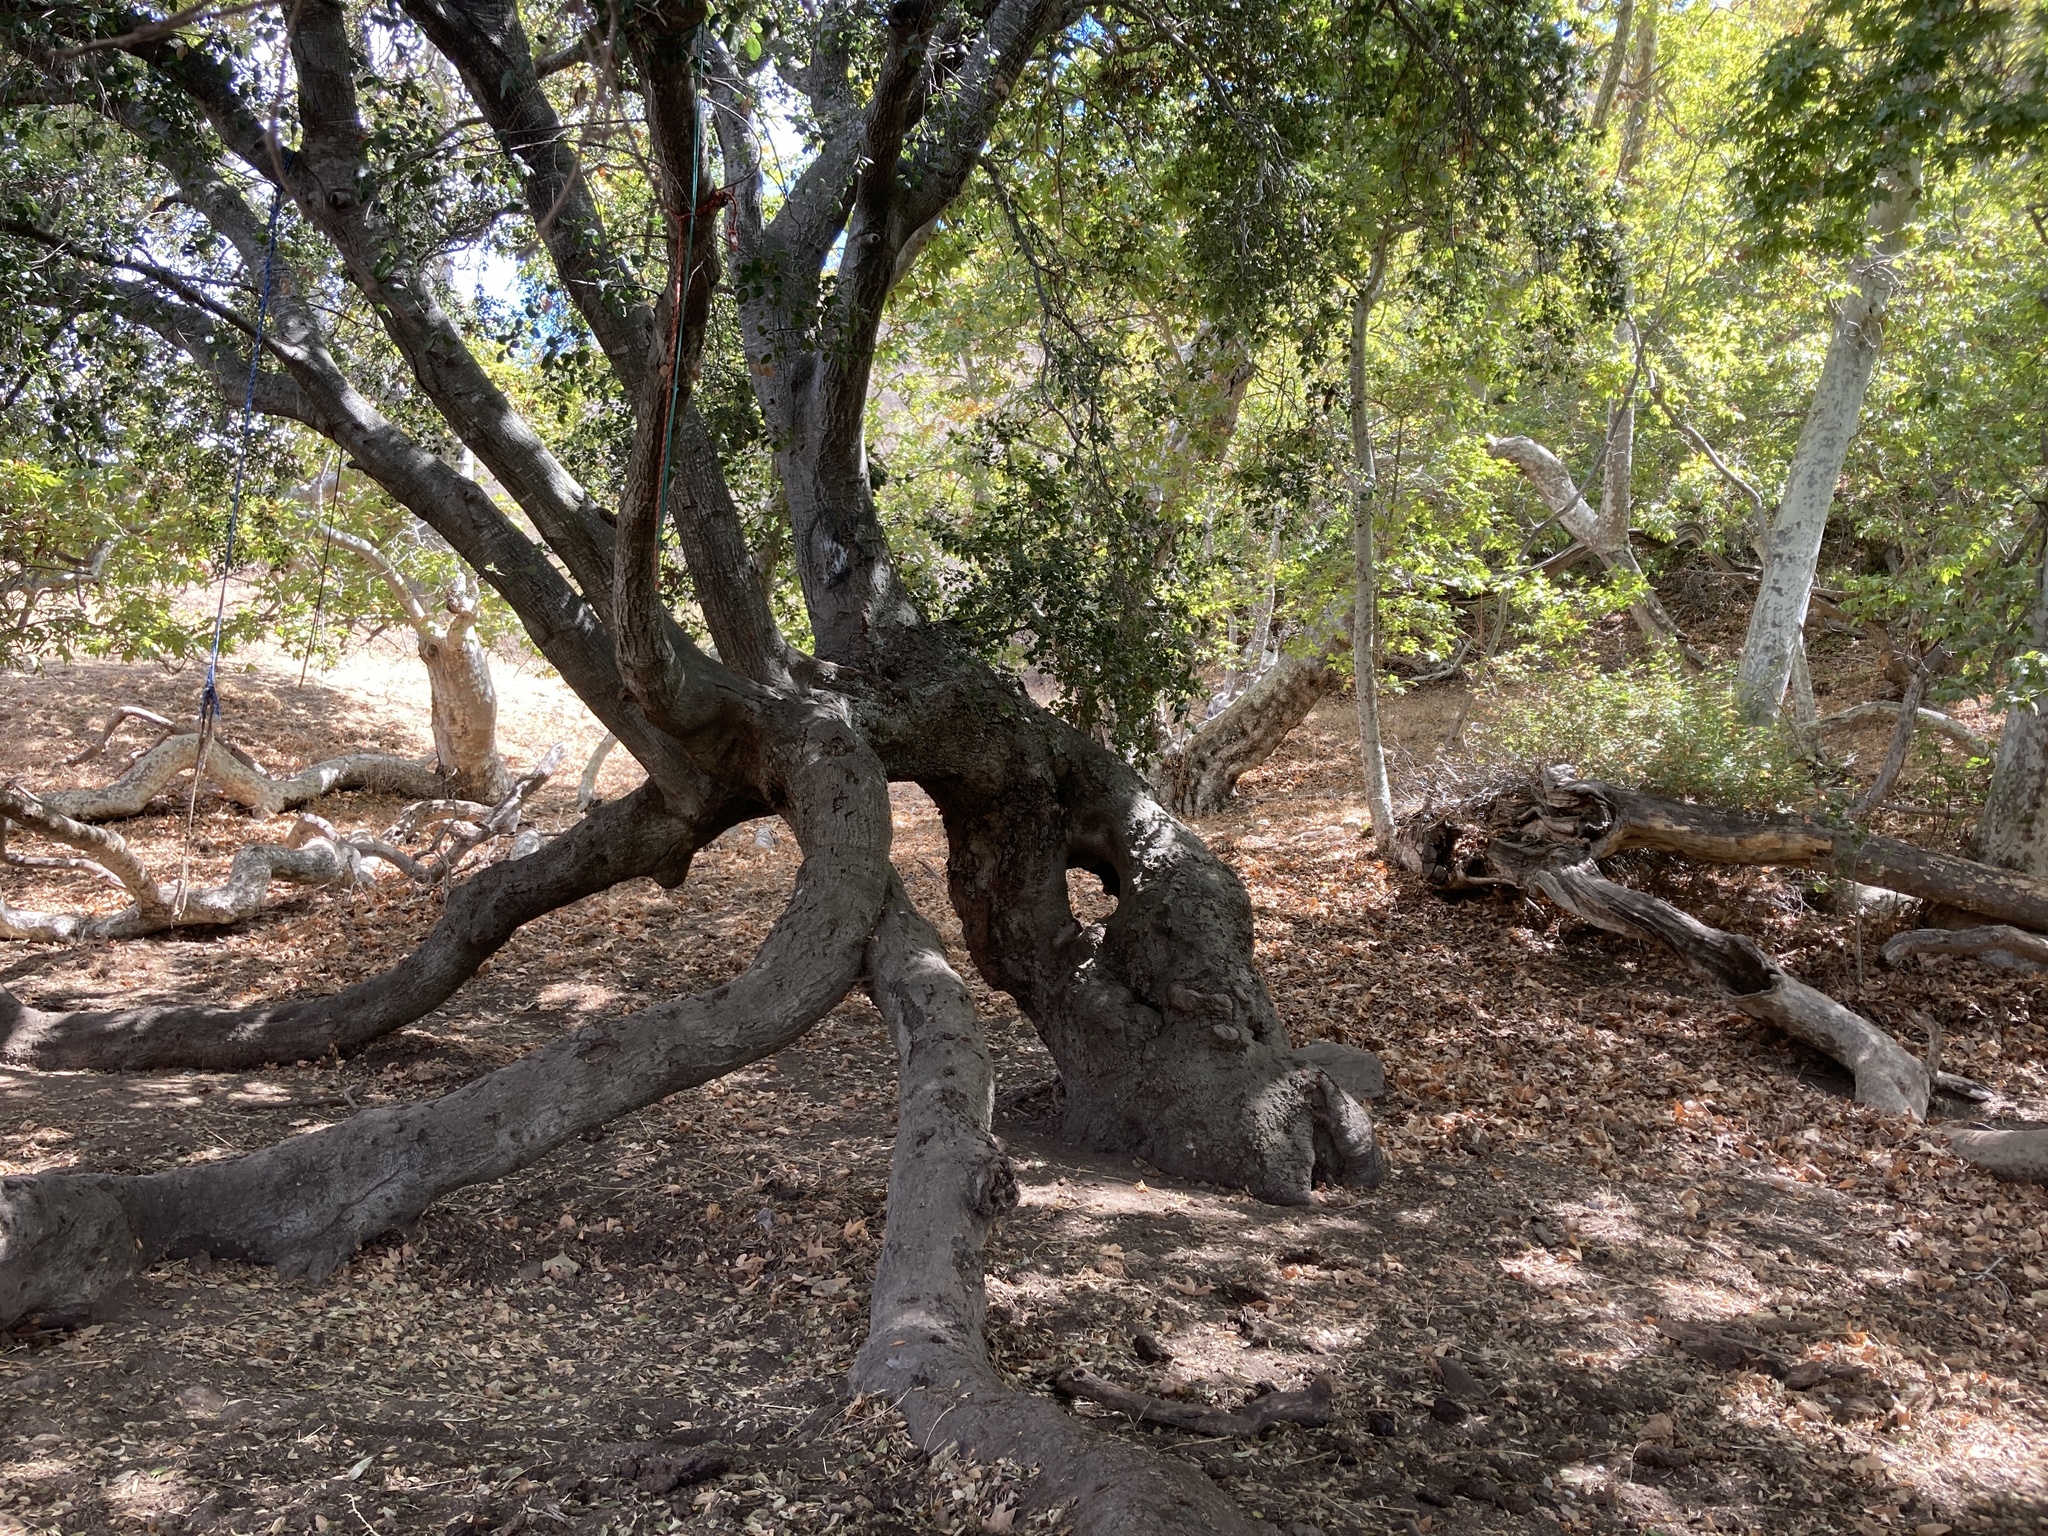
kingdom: Plantae
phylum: Tracheophyta
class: Magnoliopsida
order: Fagales
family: Fagaceae
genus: Quercus
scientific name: Quercus agrifolia
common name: California live oak
